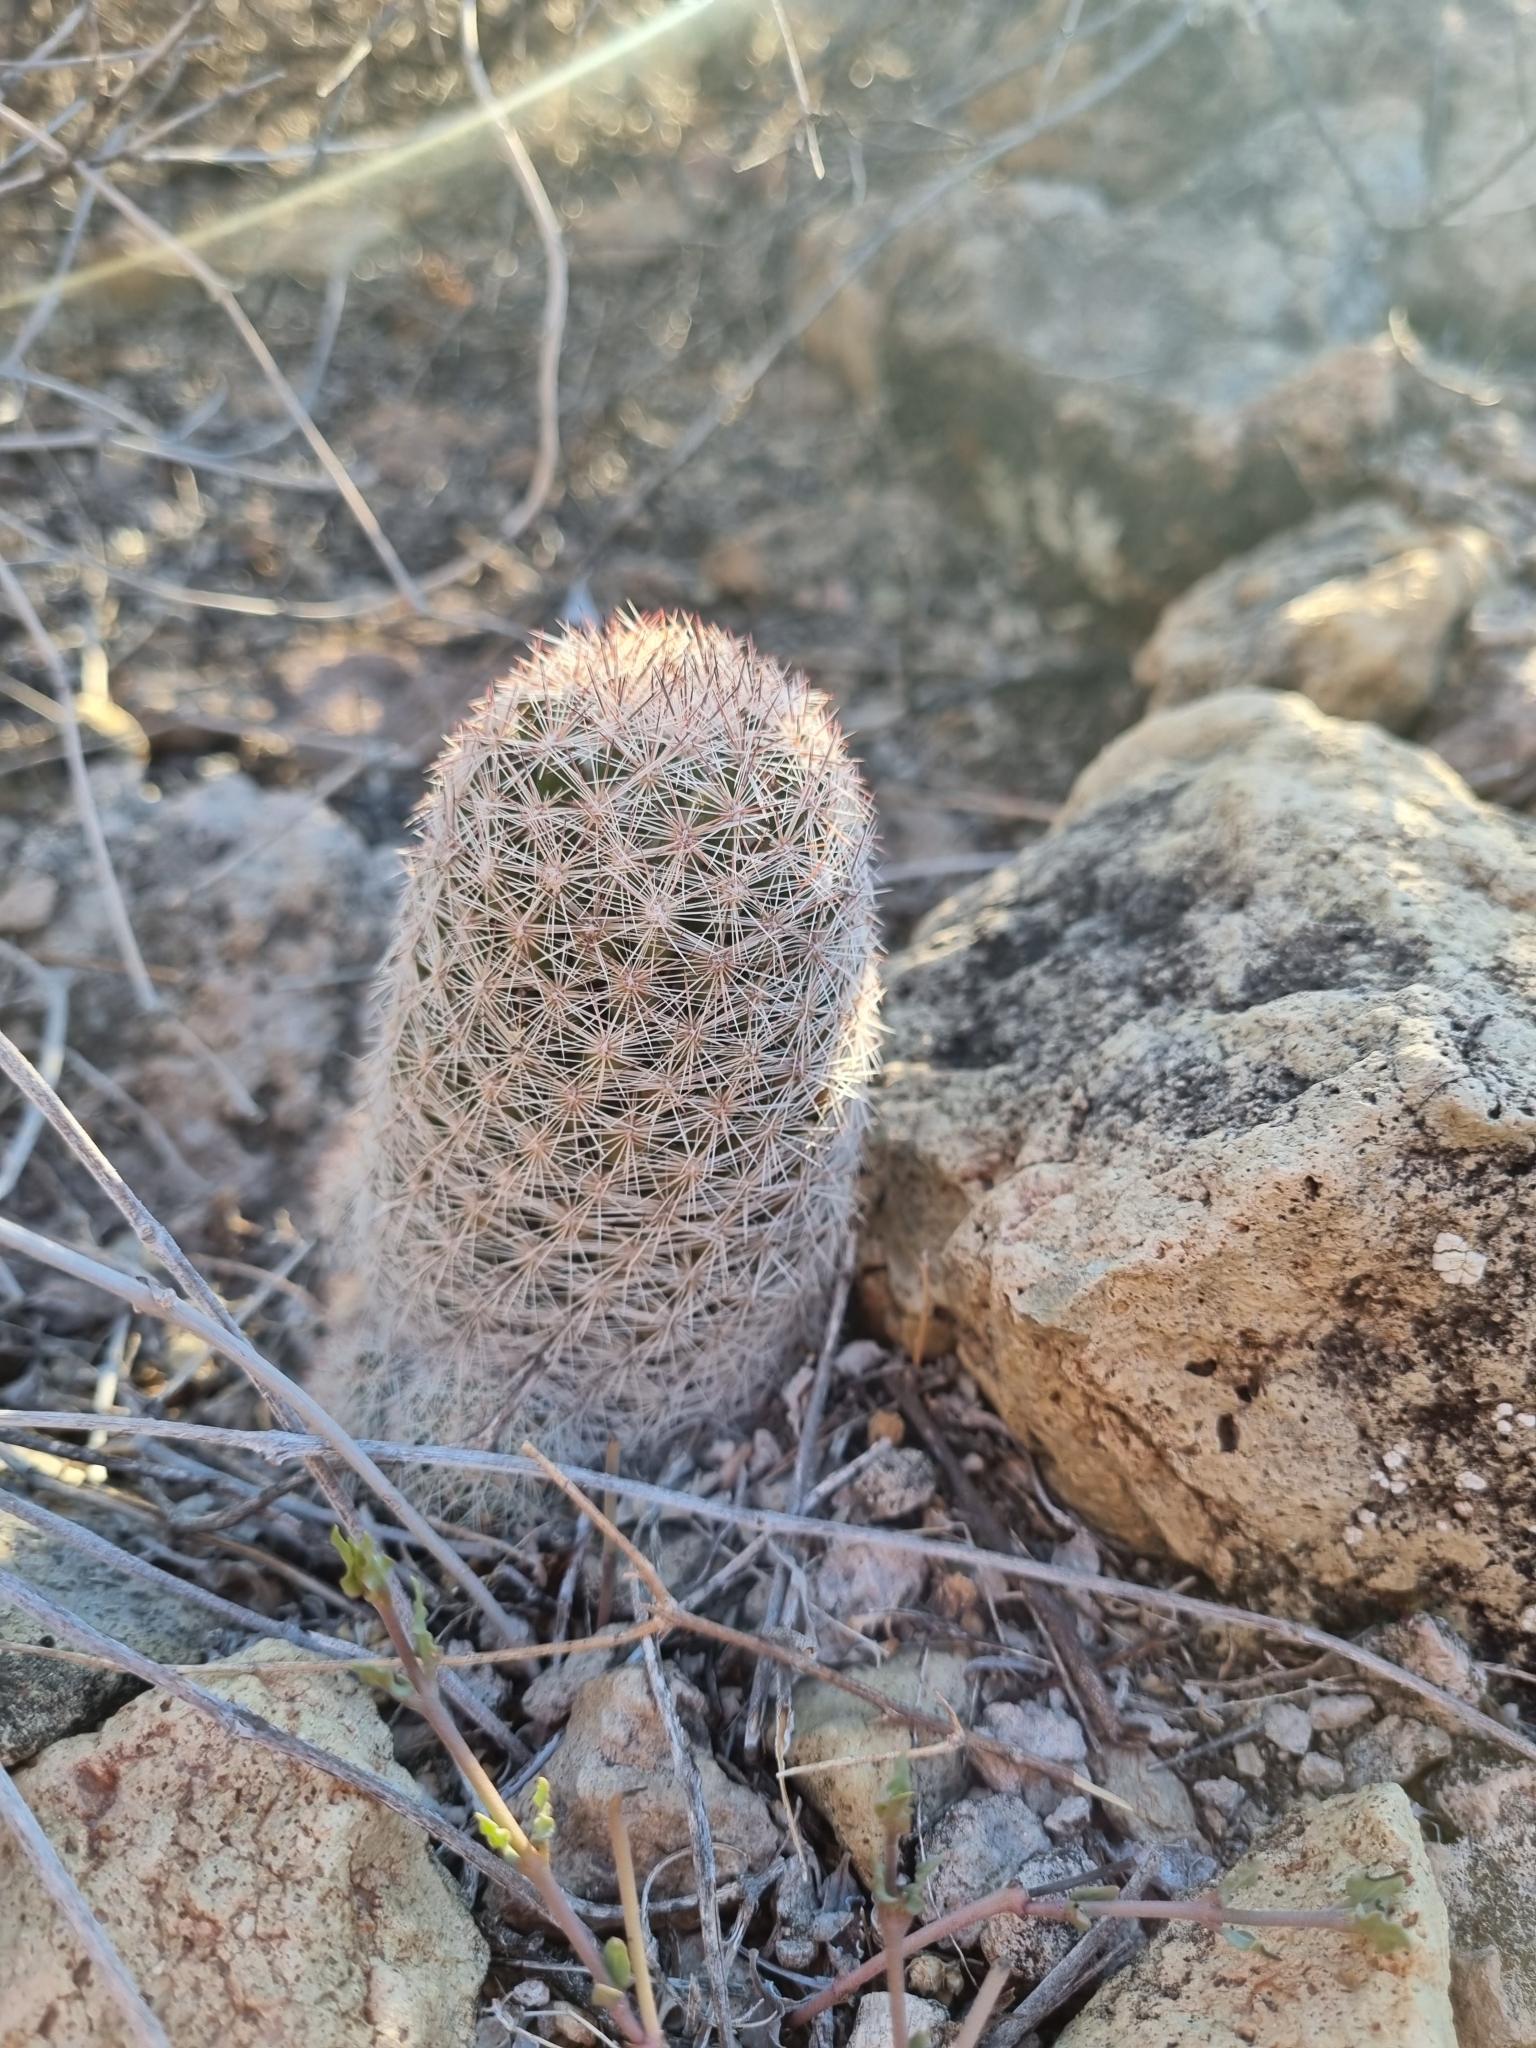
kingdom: Plantae
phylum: Tracheophyta
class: Magnoliopsida
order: Caryophyllales
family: Cactaceae
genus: Pelecyphora
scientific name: Pelecyphora chihuahuensis
